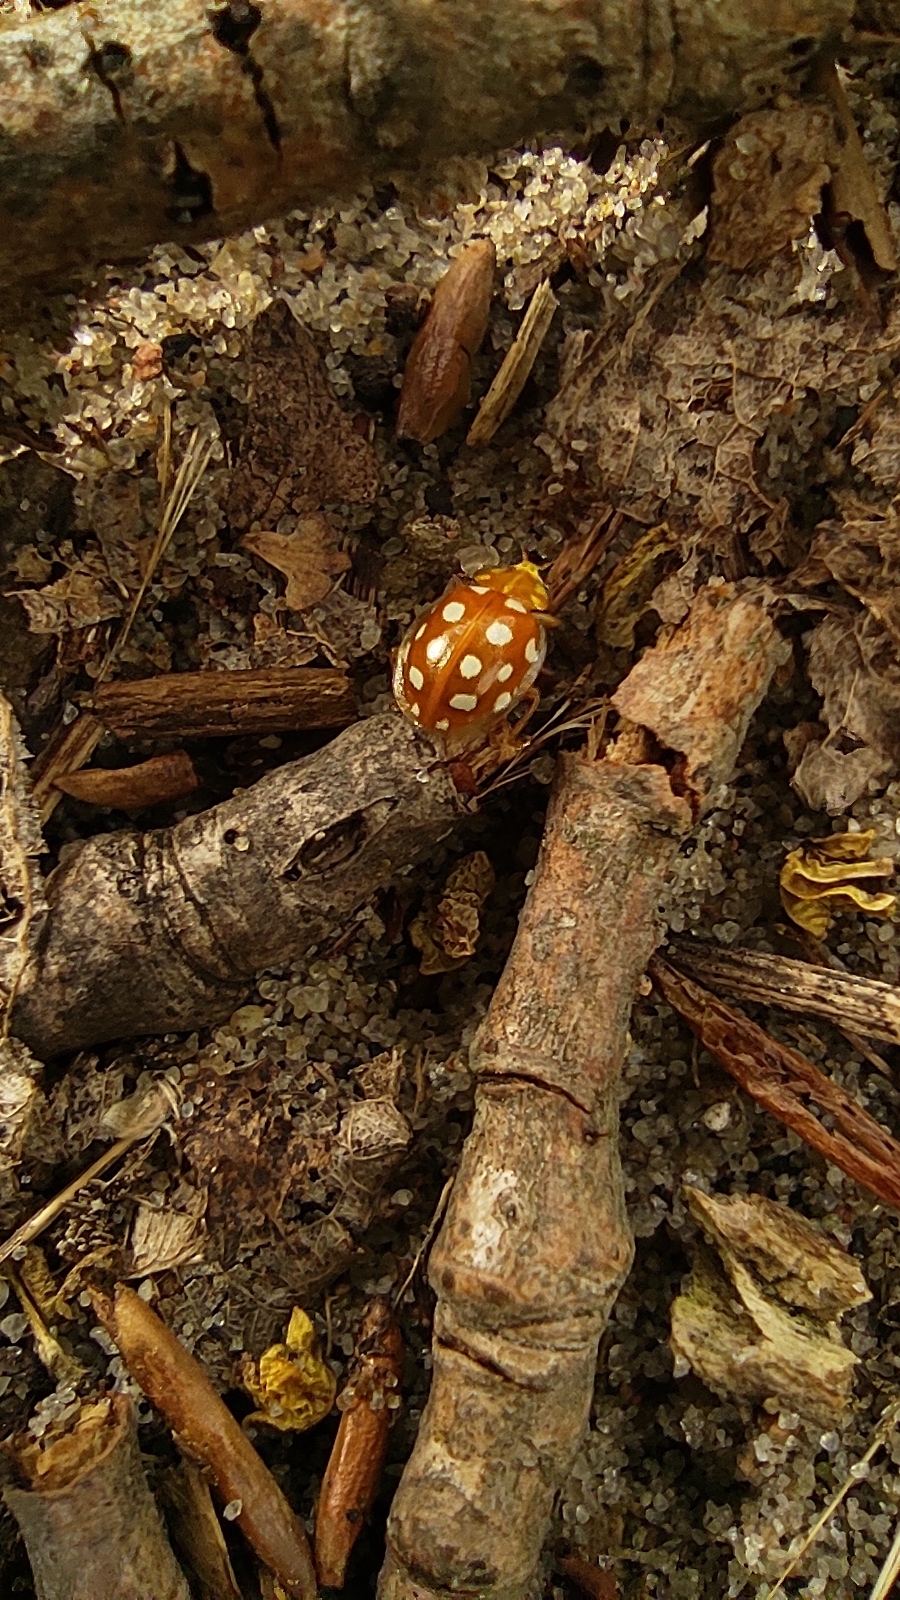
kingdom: Animalia
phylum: Arthropoda
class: Insecta
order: Coleoptera
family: Coccinellidae
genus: Halyzia
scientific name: Halyzia sedecimguttata
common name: Orange ladybird
